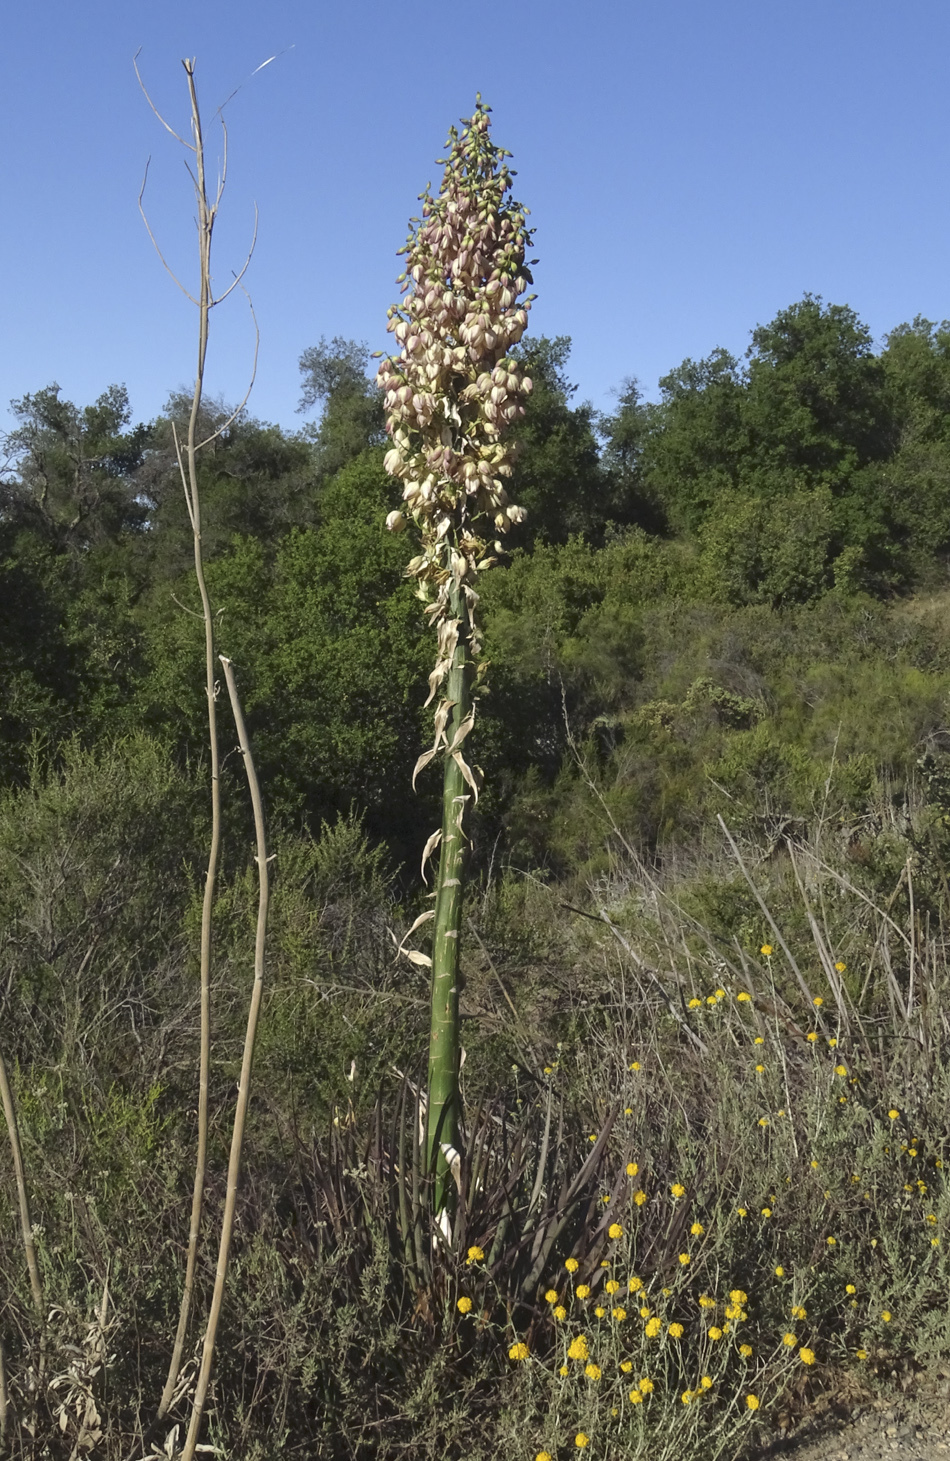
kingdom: Plantae
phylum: Tracheophyta
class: Liliopsida
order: Asparagales
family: Asparagaceae
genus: Hesperoyucca
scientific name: Hesperoyucca whipplei
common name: Our lord's-candle
